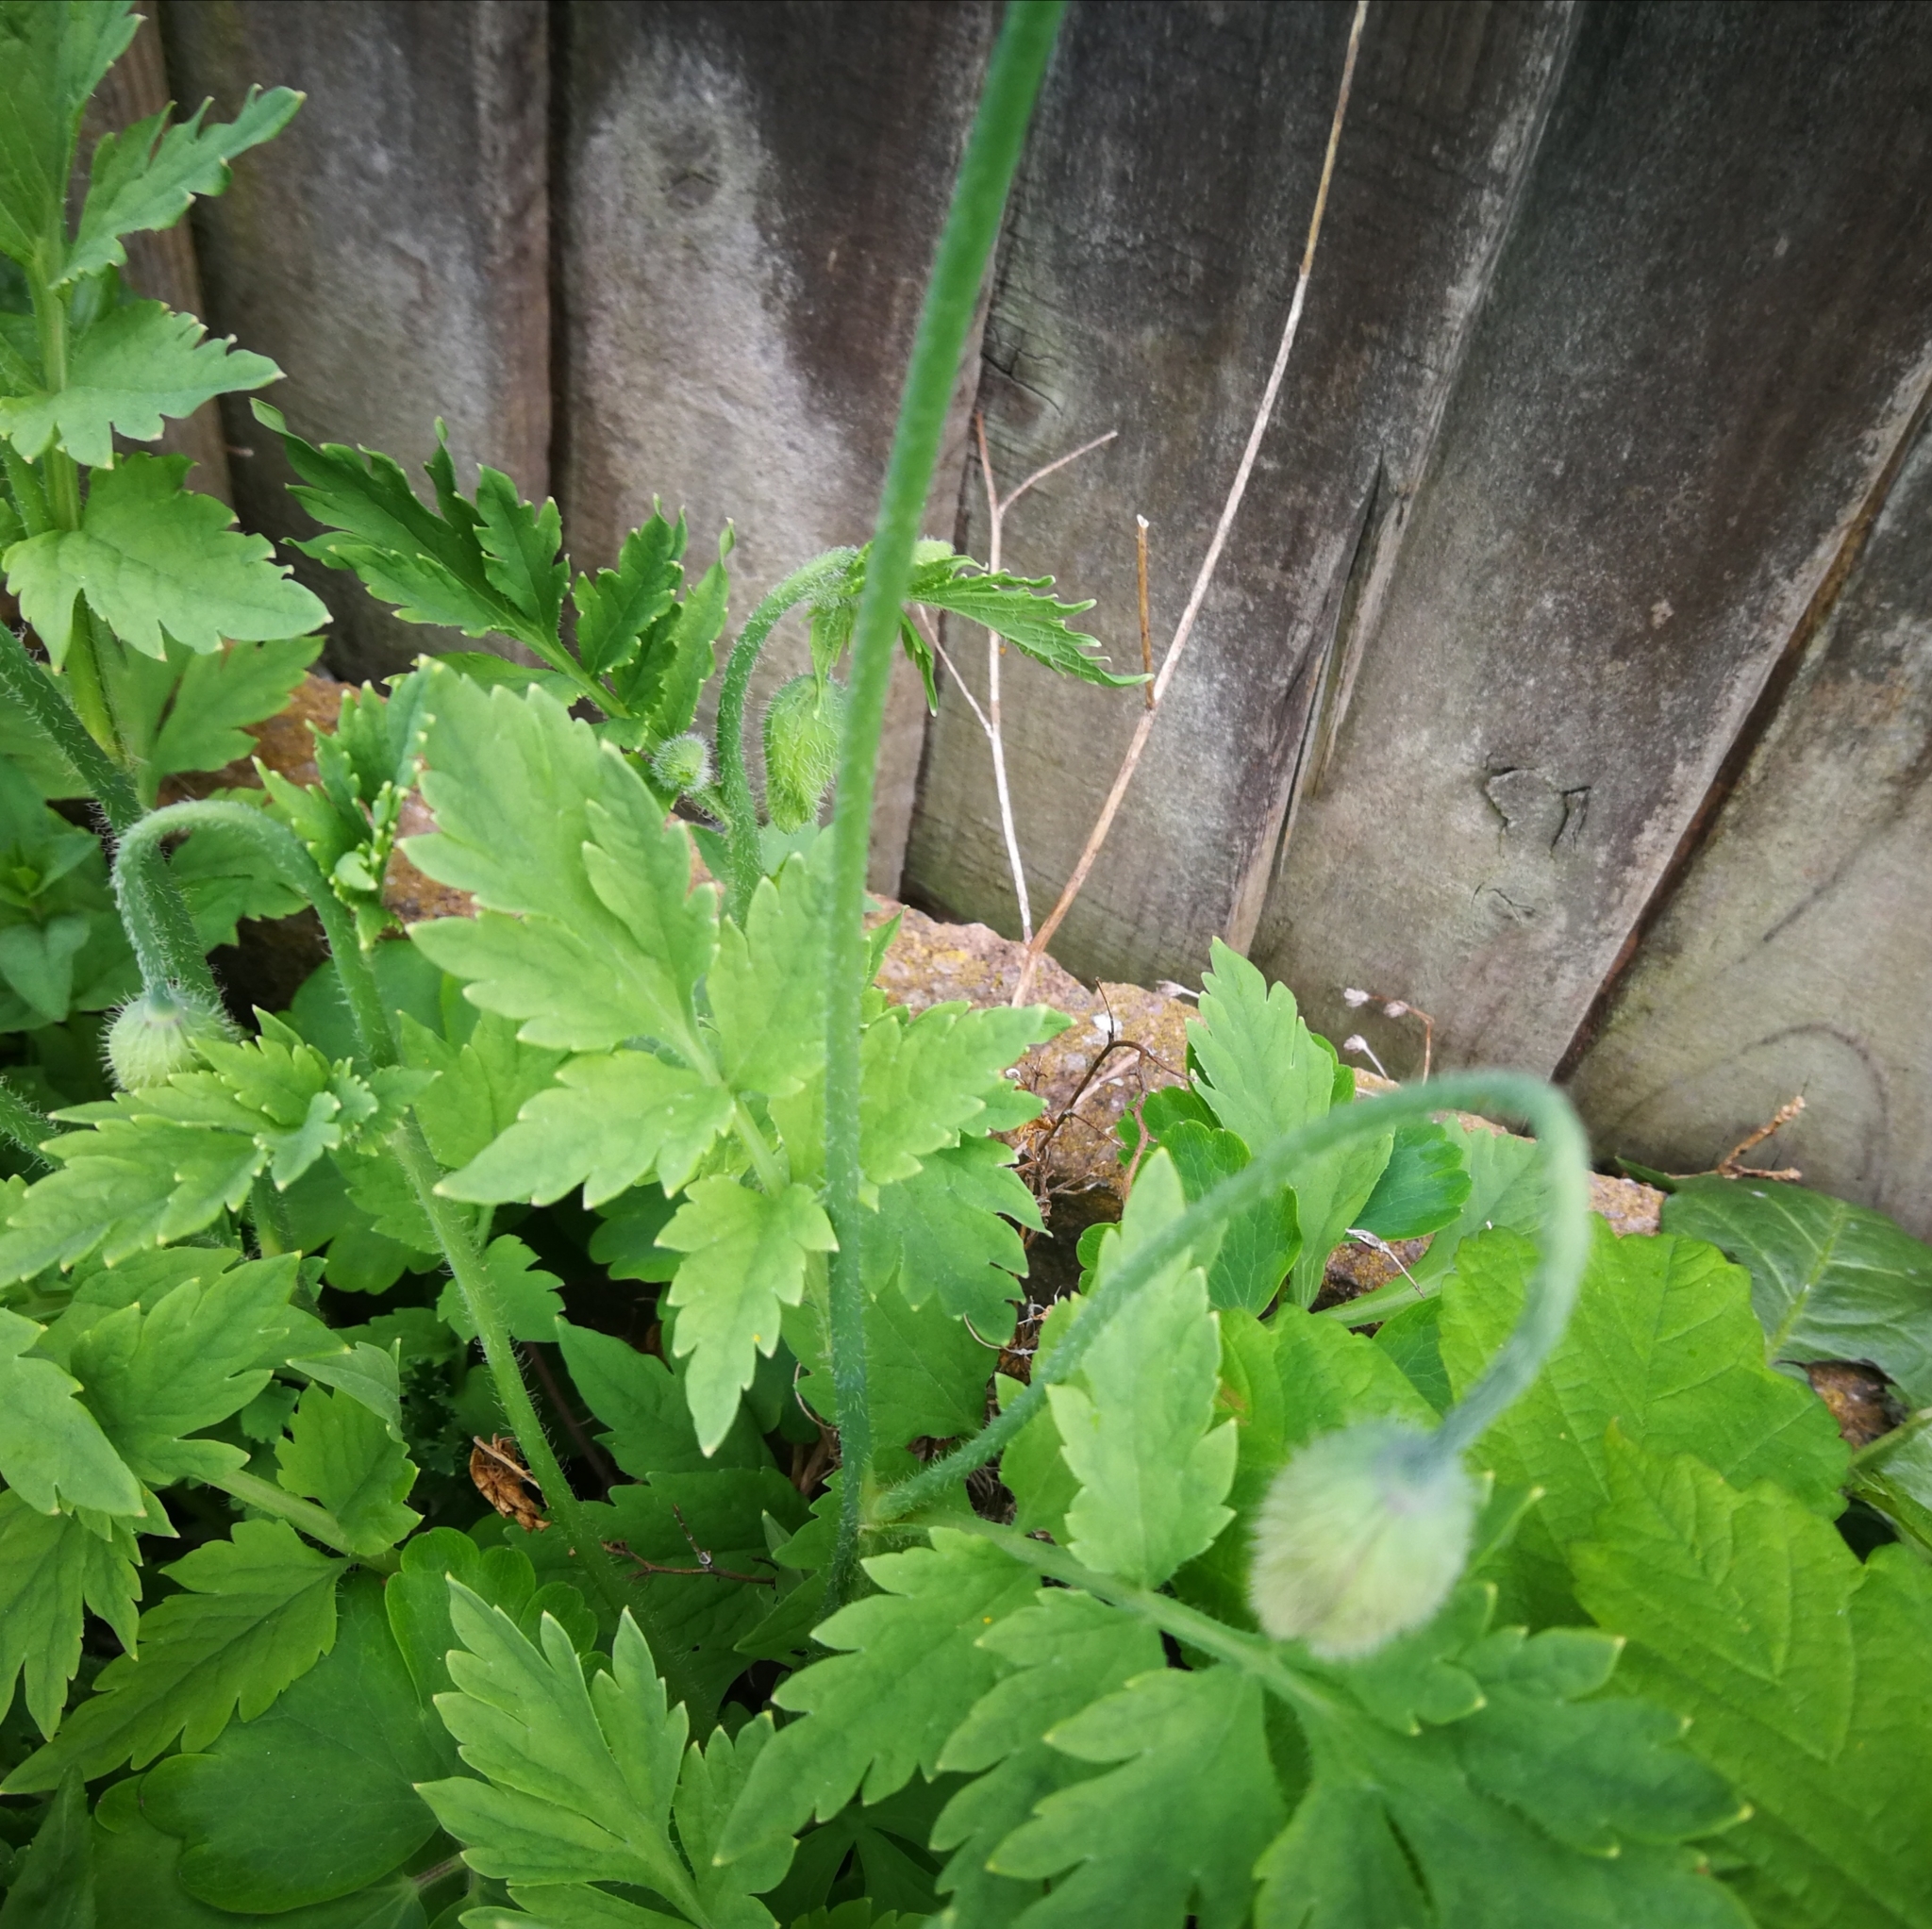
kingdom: Plantae
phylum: Tracheophyta
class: Magnoliopsida
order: Ranunculales
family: Papaveraceae
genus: Papaver
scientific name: Papaver cambricum
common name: Poppy
